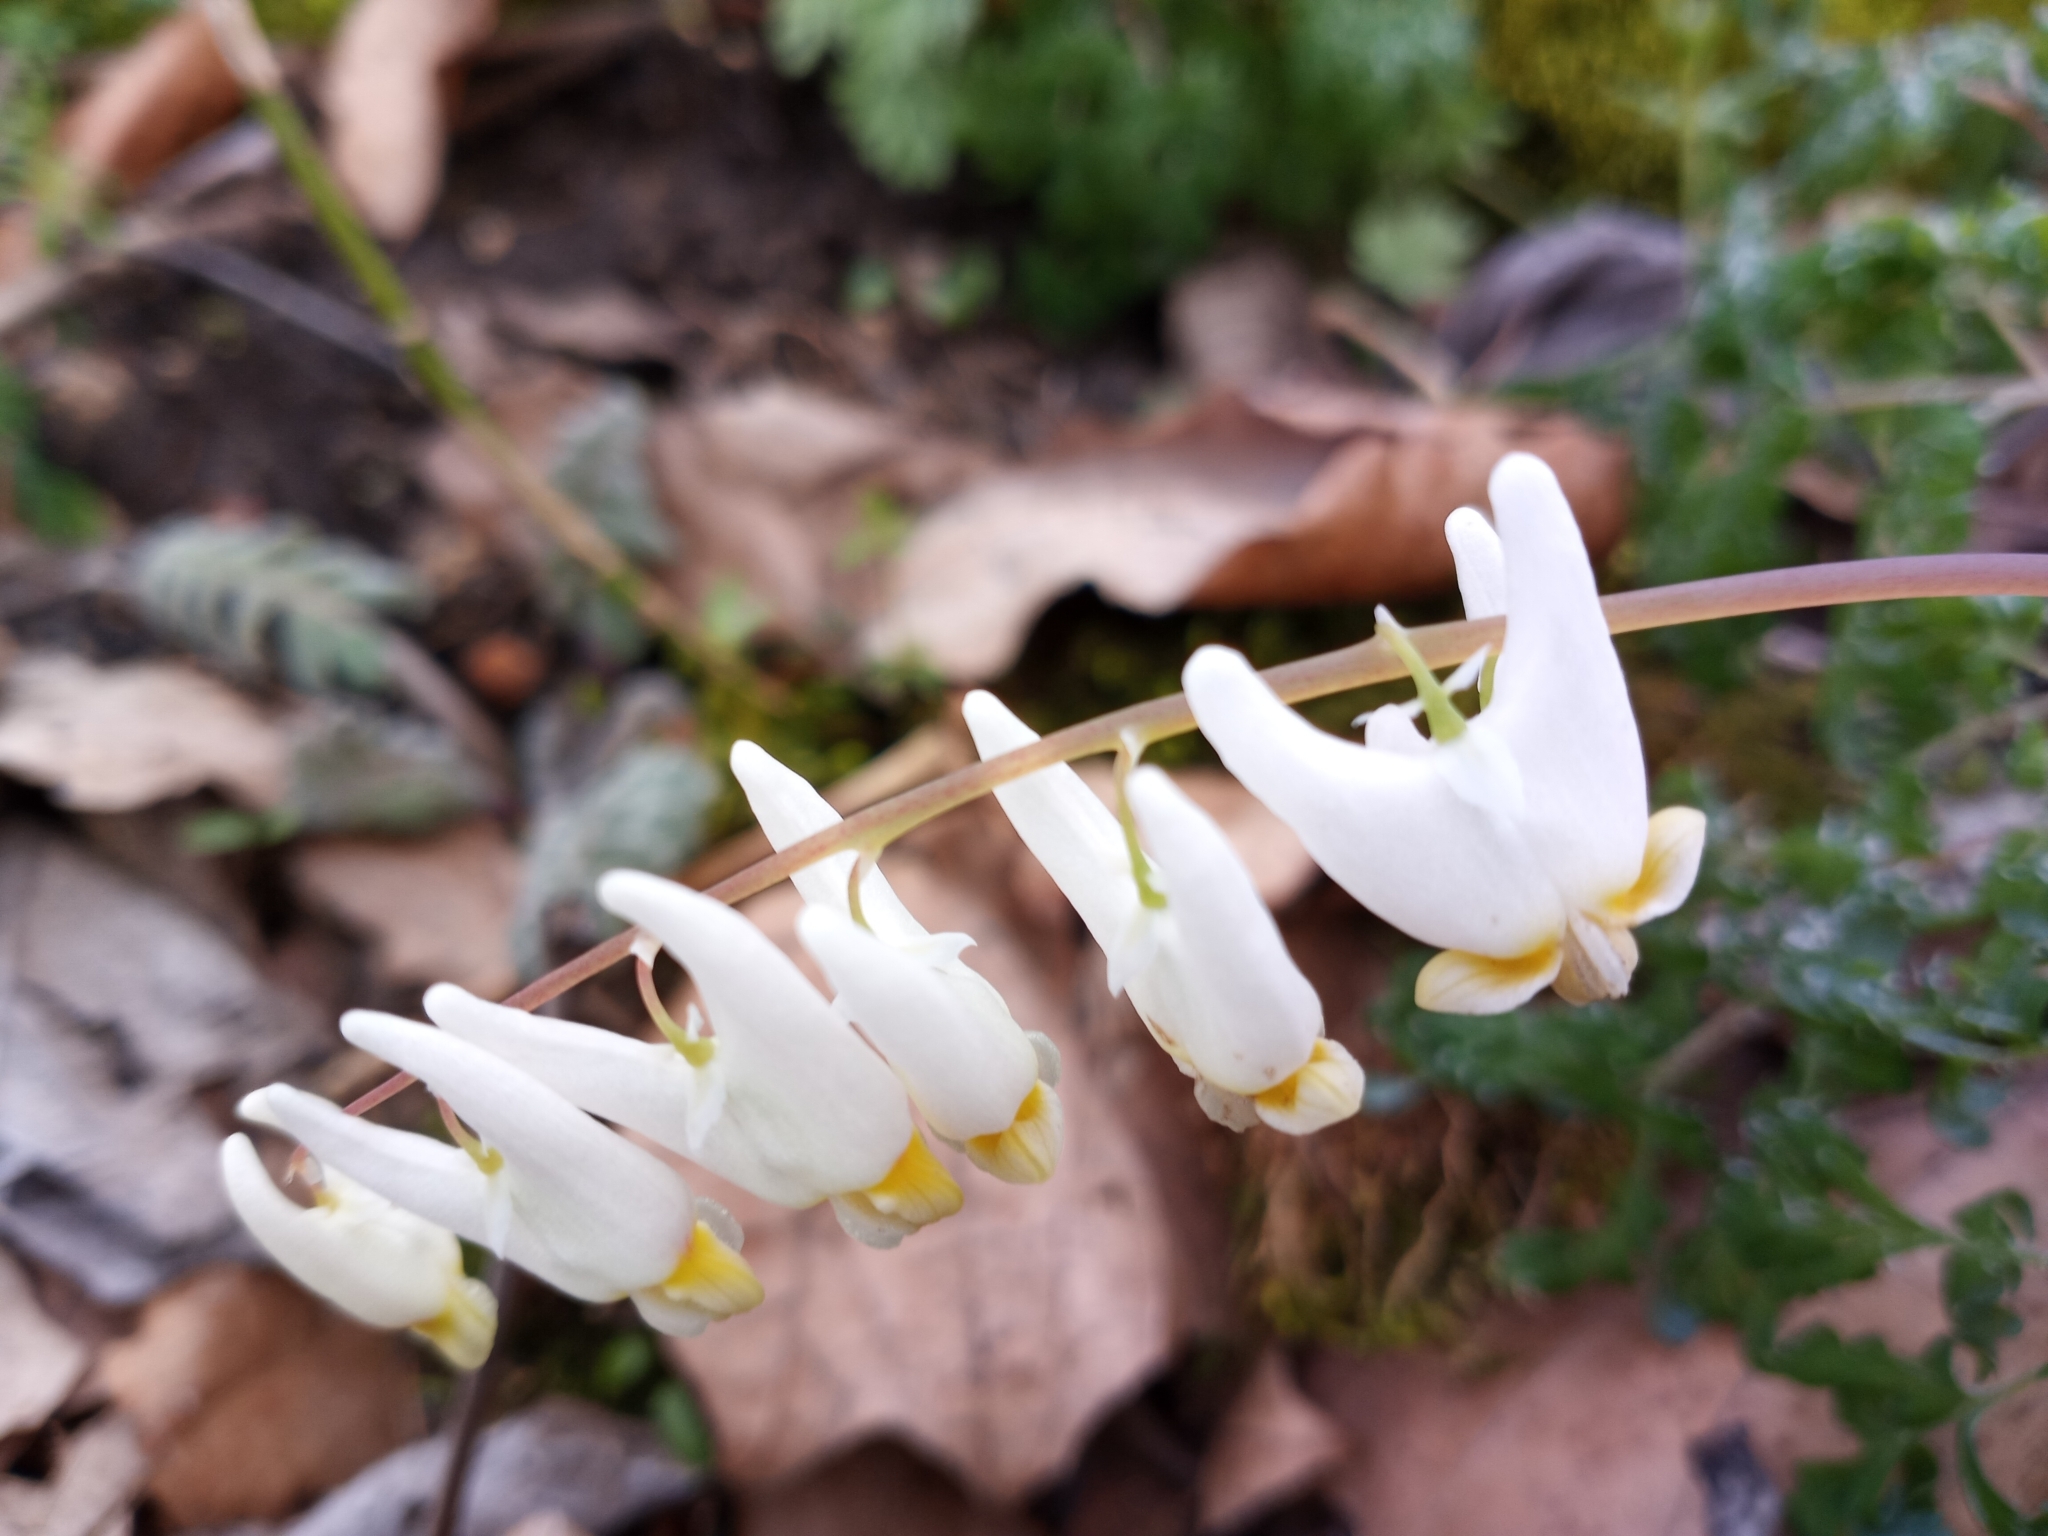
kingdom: Plantae
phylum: Tracheophyta
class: Magnoliopsida
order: Ranunculales
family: Papaveraceae
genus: Dicentra
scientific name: Dicentra cucullaria
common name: Dutchman's breeches
